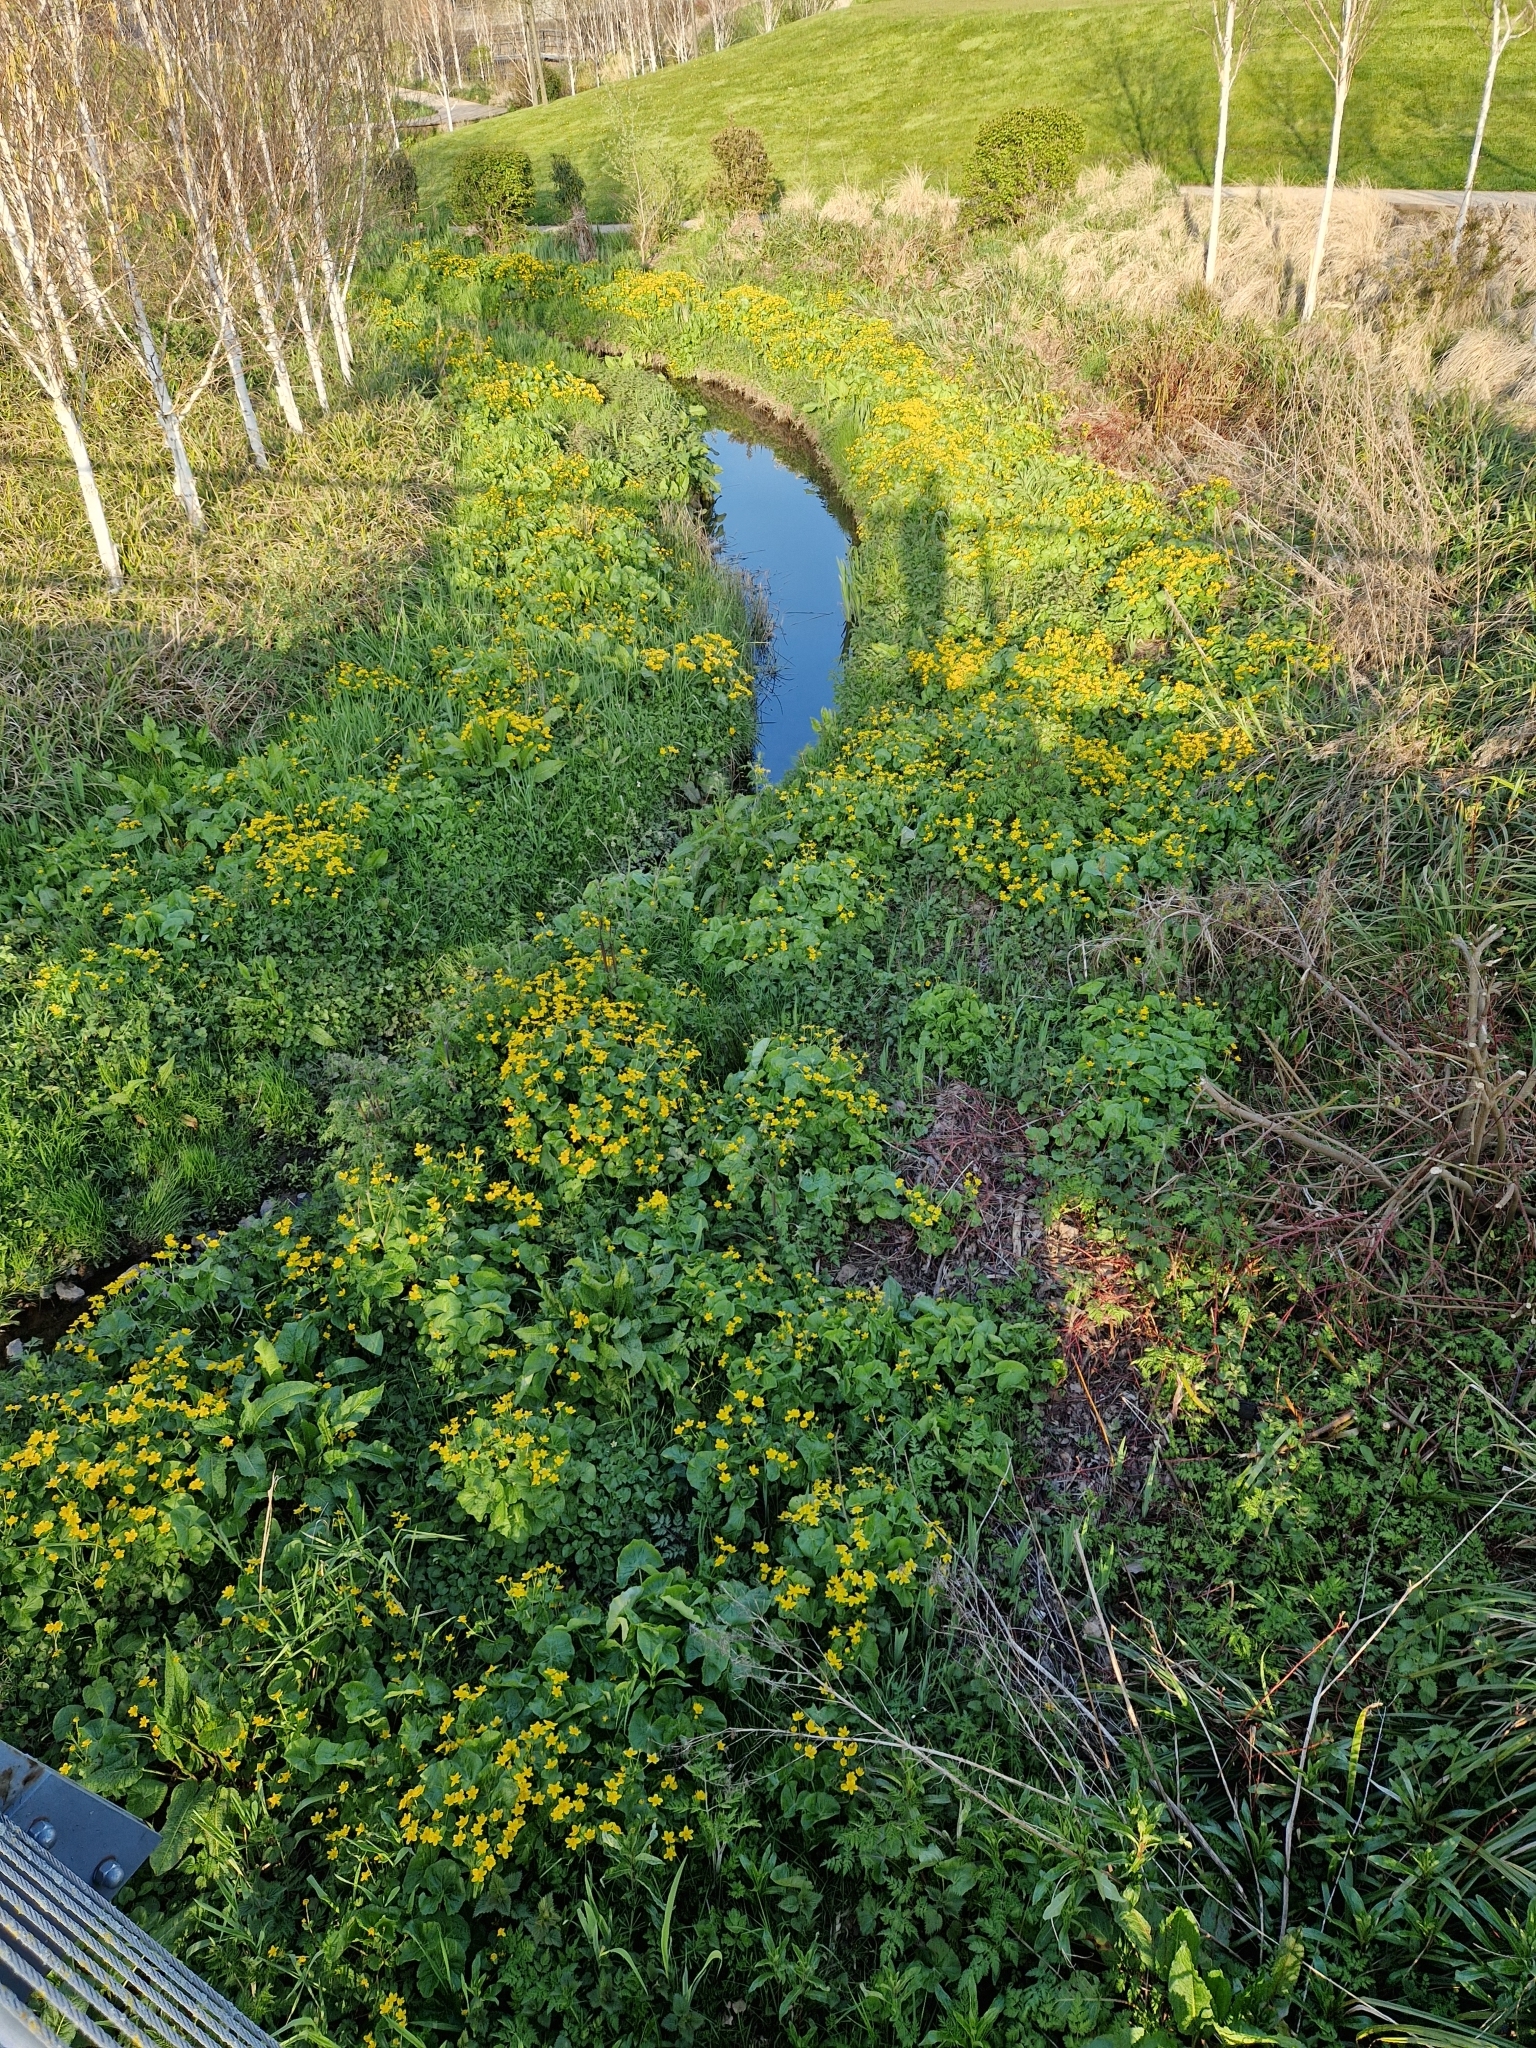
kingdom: Plantae
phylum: Tracheophyta
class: Magnoliopsida
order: Ranunculales
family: Ranunculaceae
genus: Caltha
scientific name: Caltha palustris
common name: Marsh marigold
